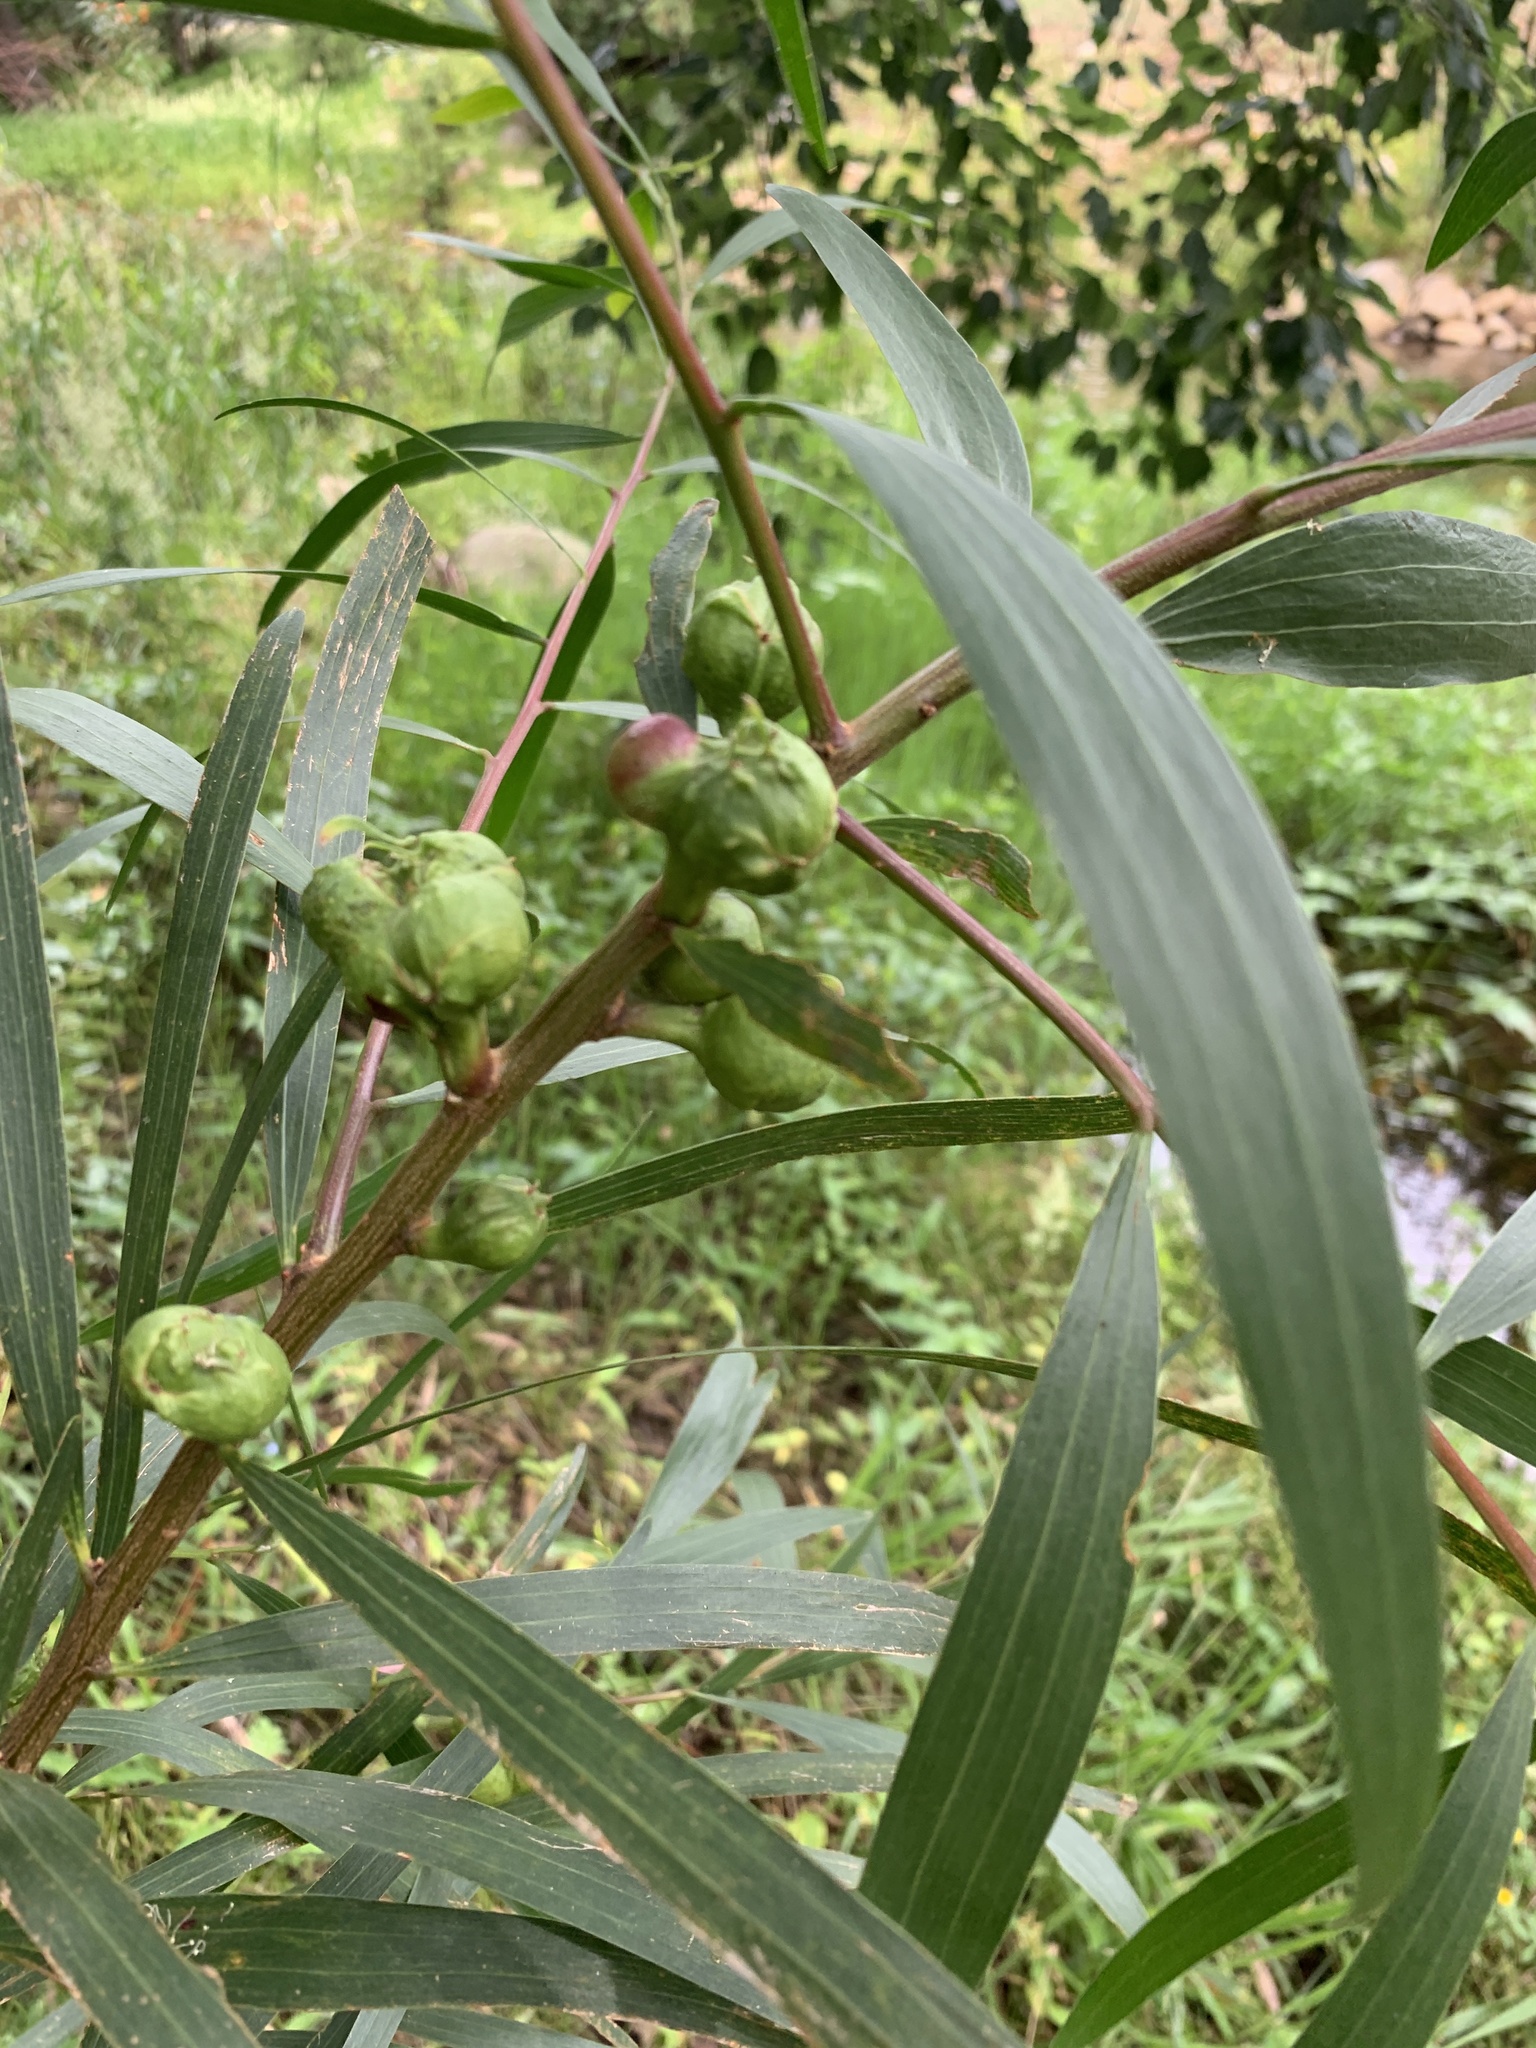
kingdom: Plantae
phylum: Tracheophyta
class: Magnoliopsida
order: Fabales
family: Fabaceae
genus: Acacia
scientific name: Acacia longifolia
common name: Sydney golden wattle
